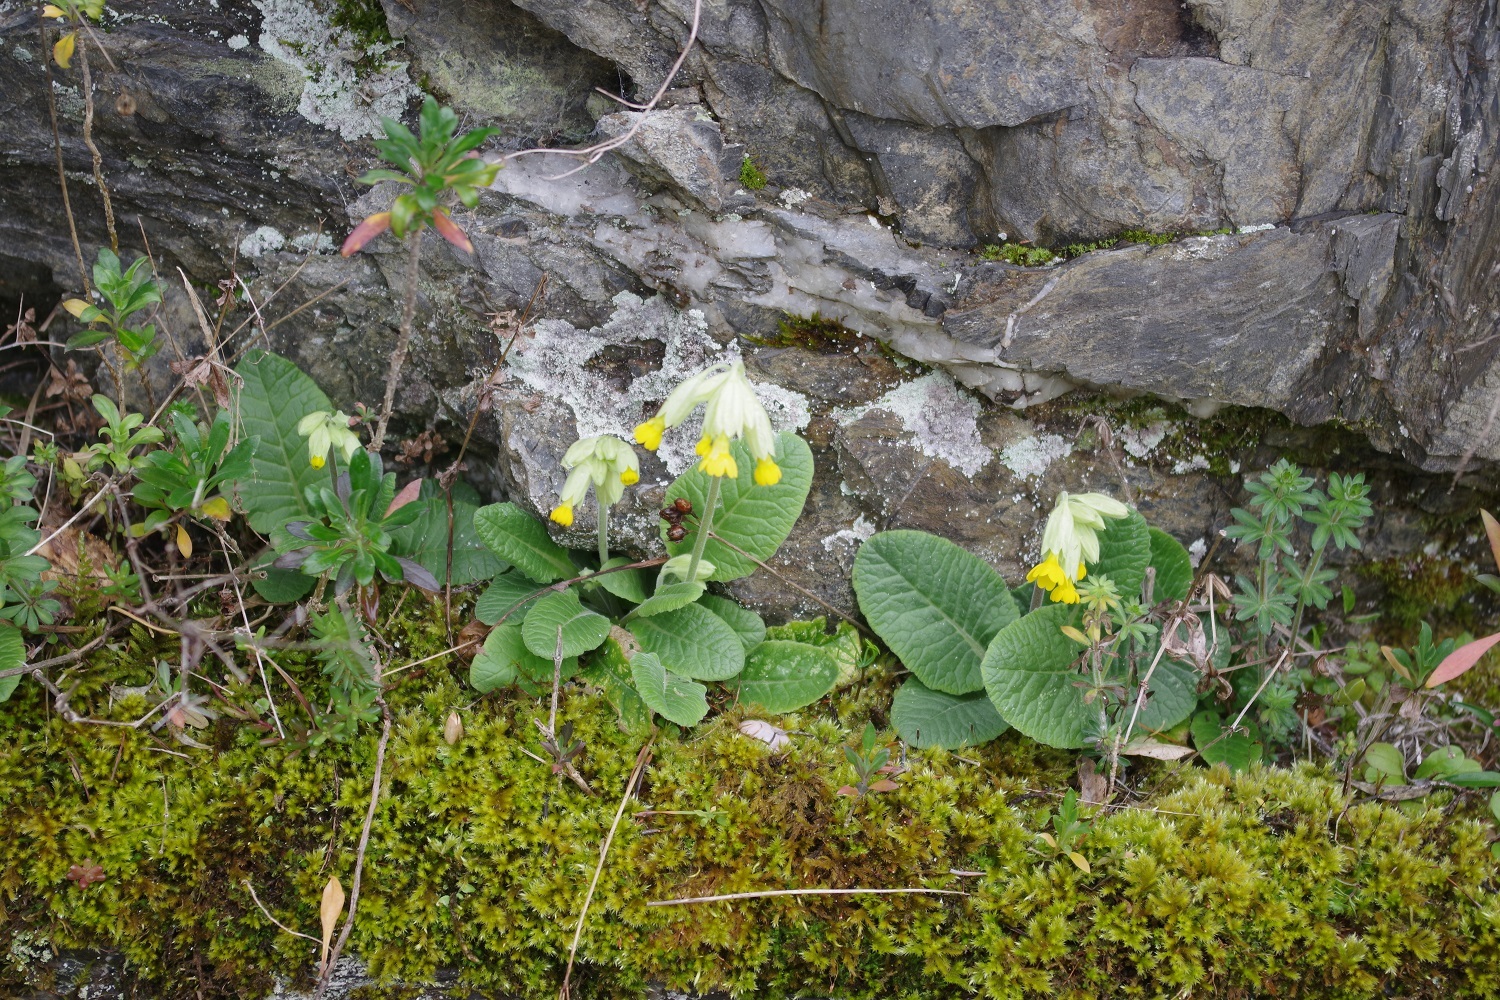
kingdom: Plantae
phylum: Tracheophyta
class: Magnoliopsida
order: Ericales
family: Primulaceae
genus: Primula
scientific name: Primula veris
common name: Cowslip
